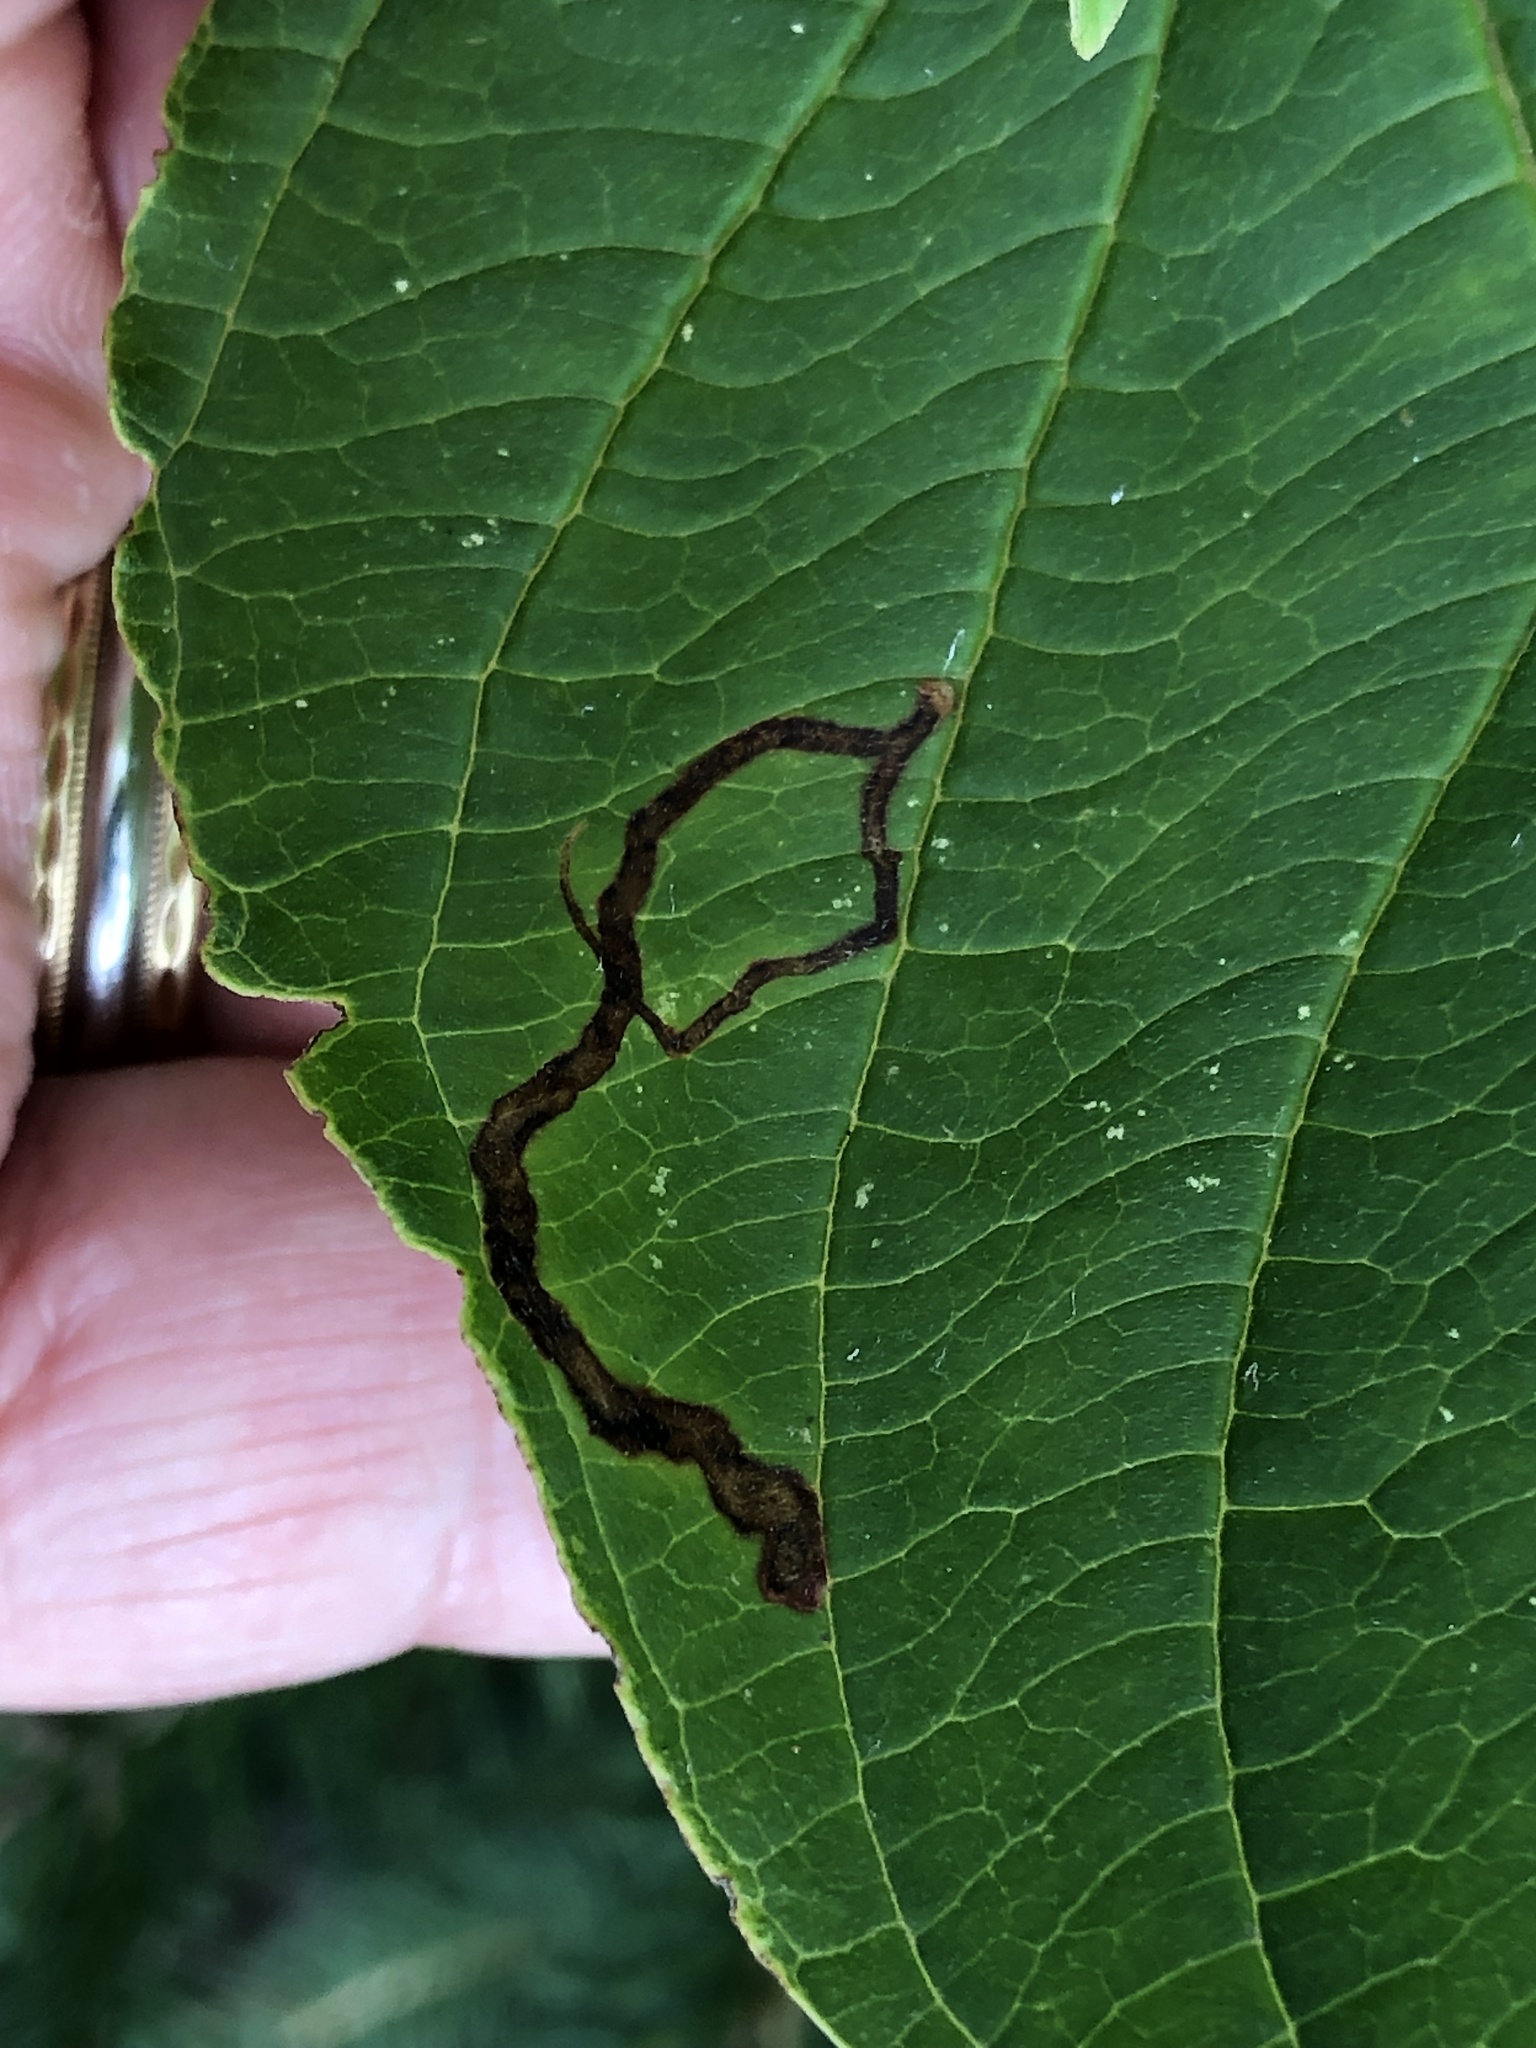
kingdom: Animalia
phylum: Arthropoda
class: Insecta
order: Diptera
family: Agromyzidae
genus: Phytomyza
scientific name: Phytomyza agromyzina
